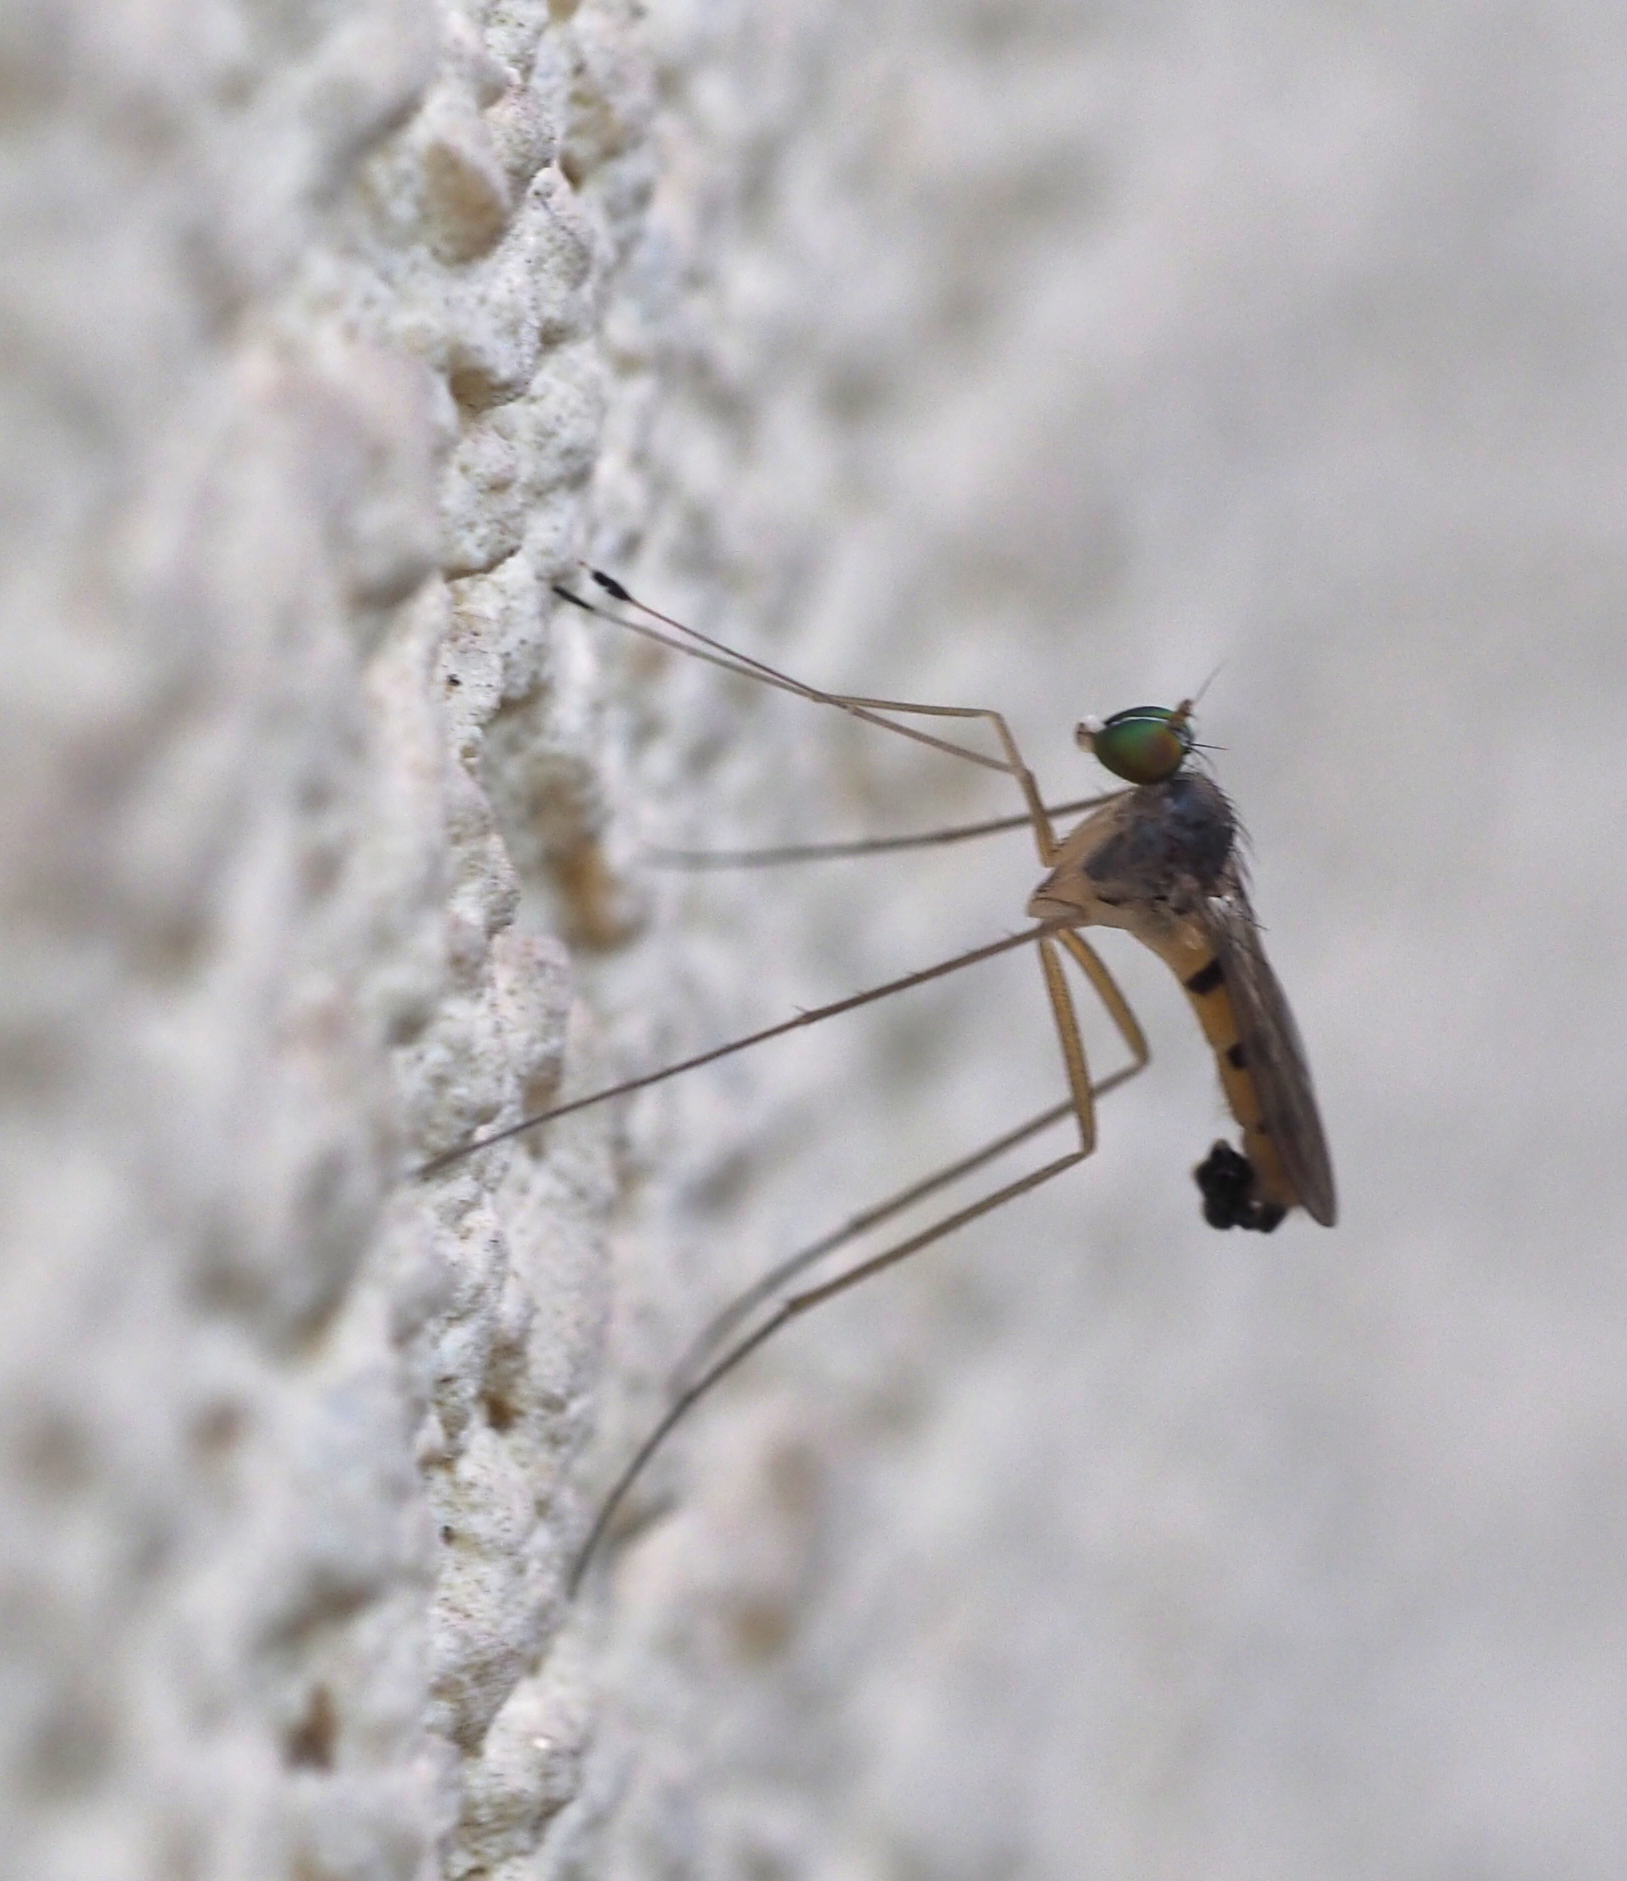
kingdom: Animalia
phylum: Arthropoda
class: Insecta
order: Diptera
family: Dolichopodidae
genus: Neurigona
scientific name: Neurigona quadrifasciata
